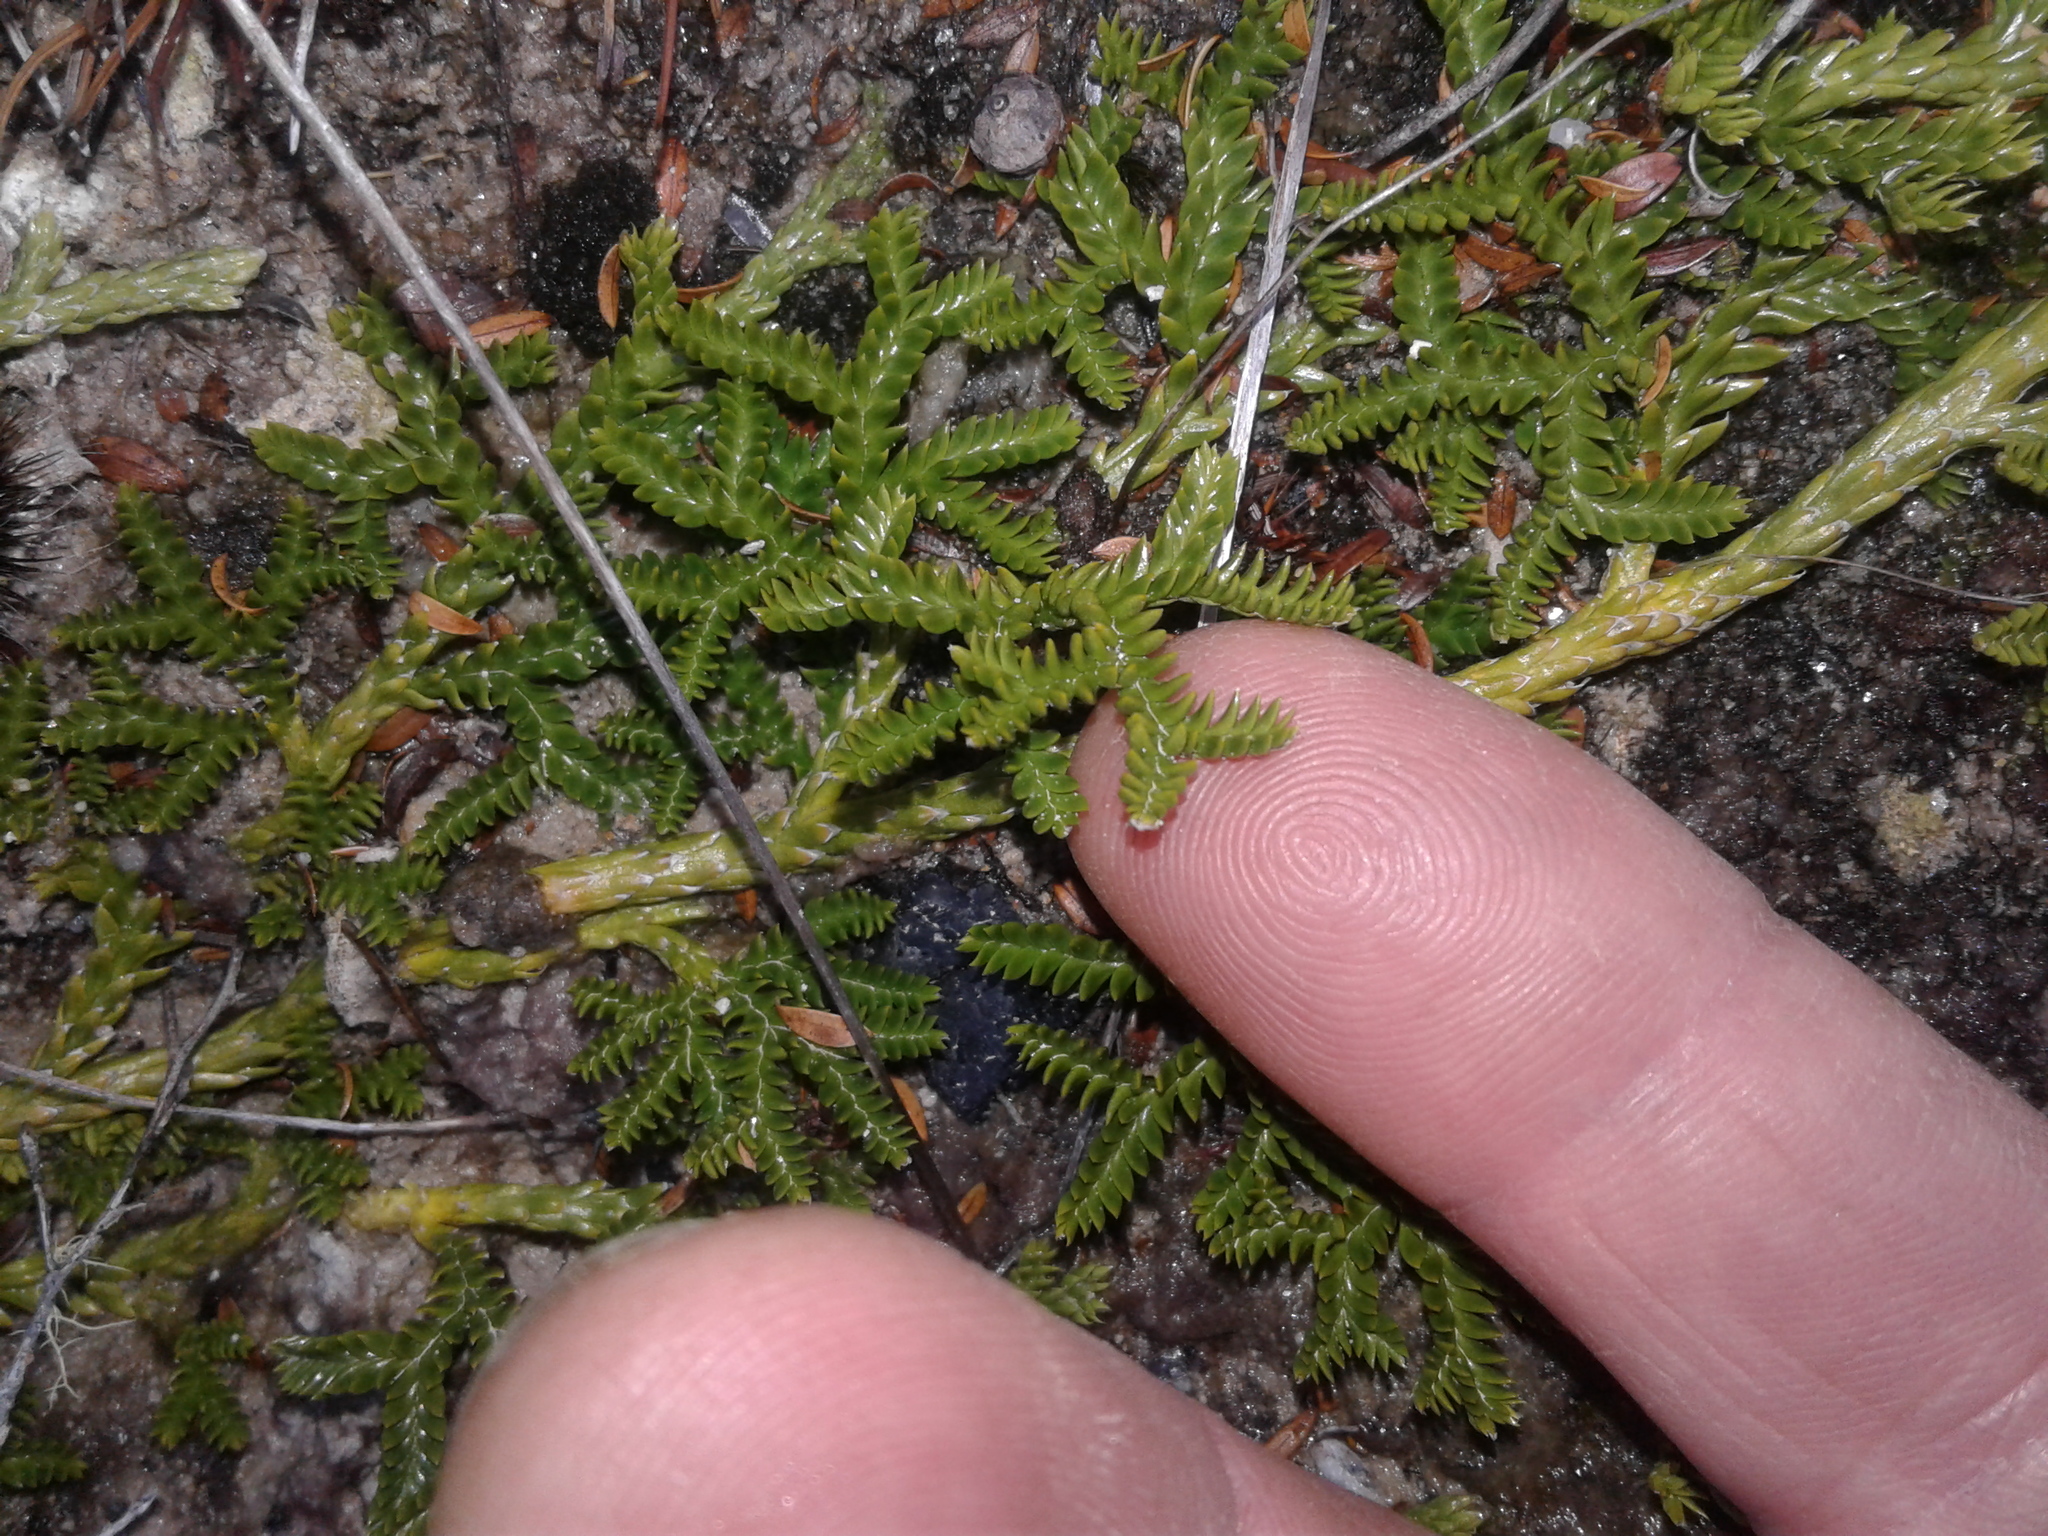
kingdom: Plantae
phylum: Tracheophyta
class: Lycopodiopsida
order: Lycopodiales
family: Lycopodiaceae
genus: Lateristachys
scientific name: Lateristachys diffusa
